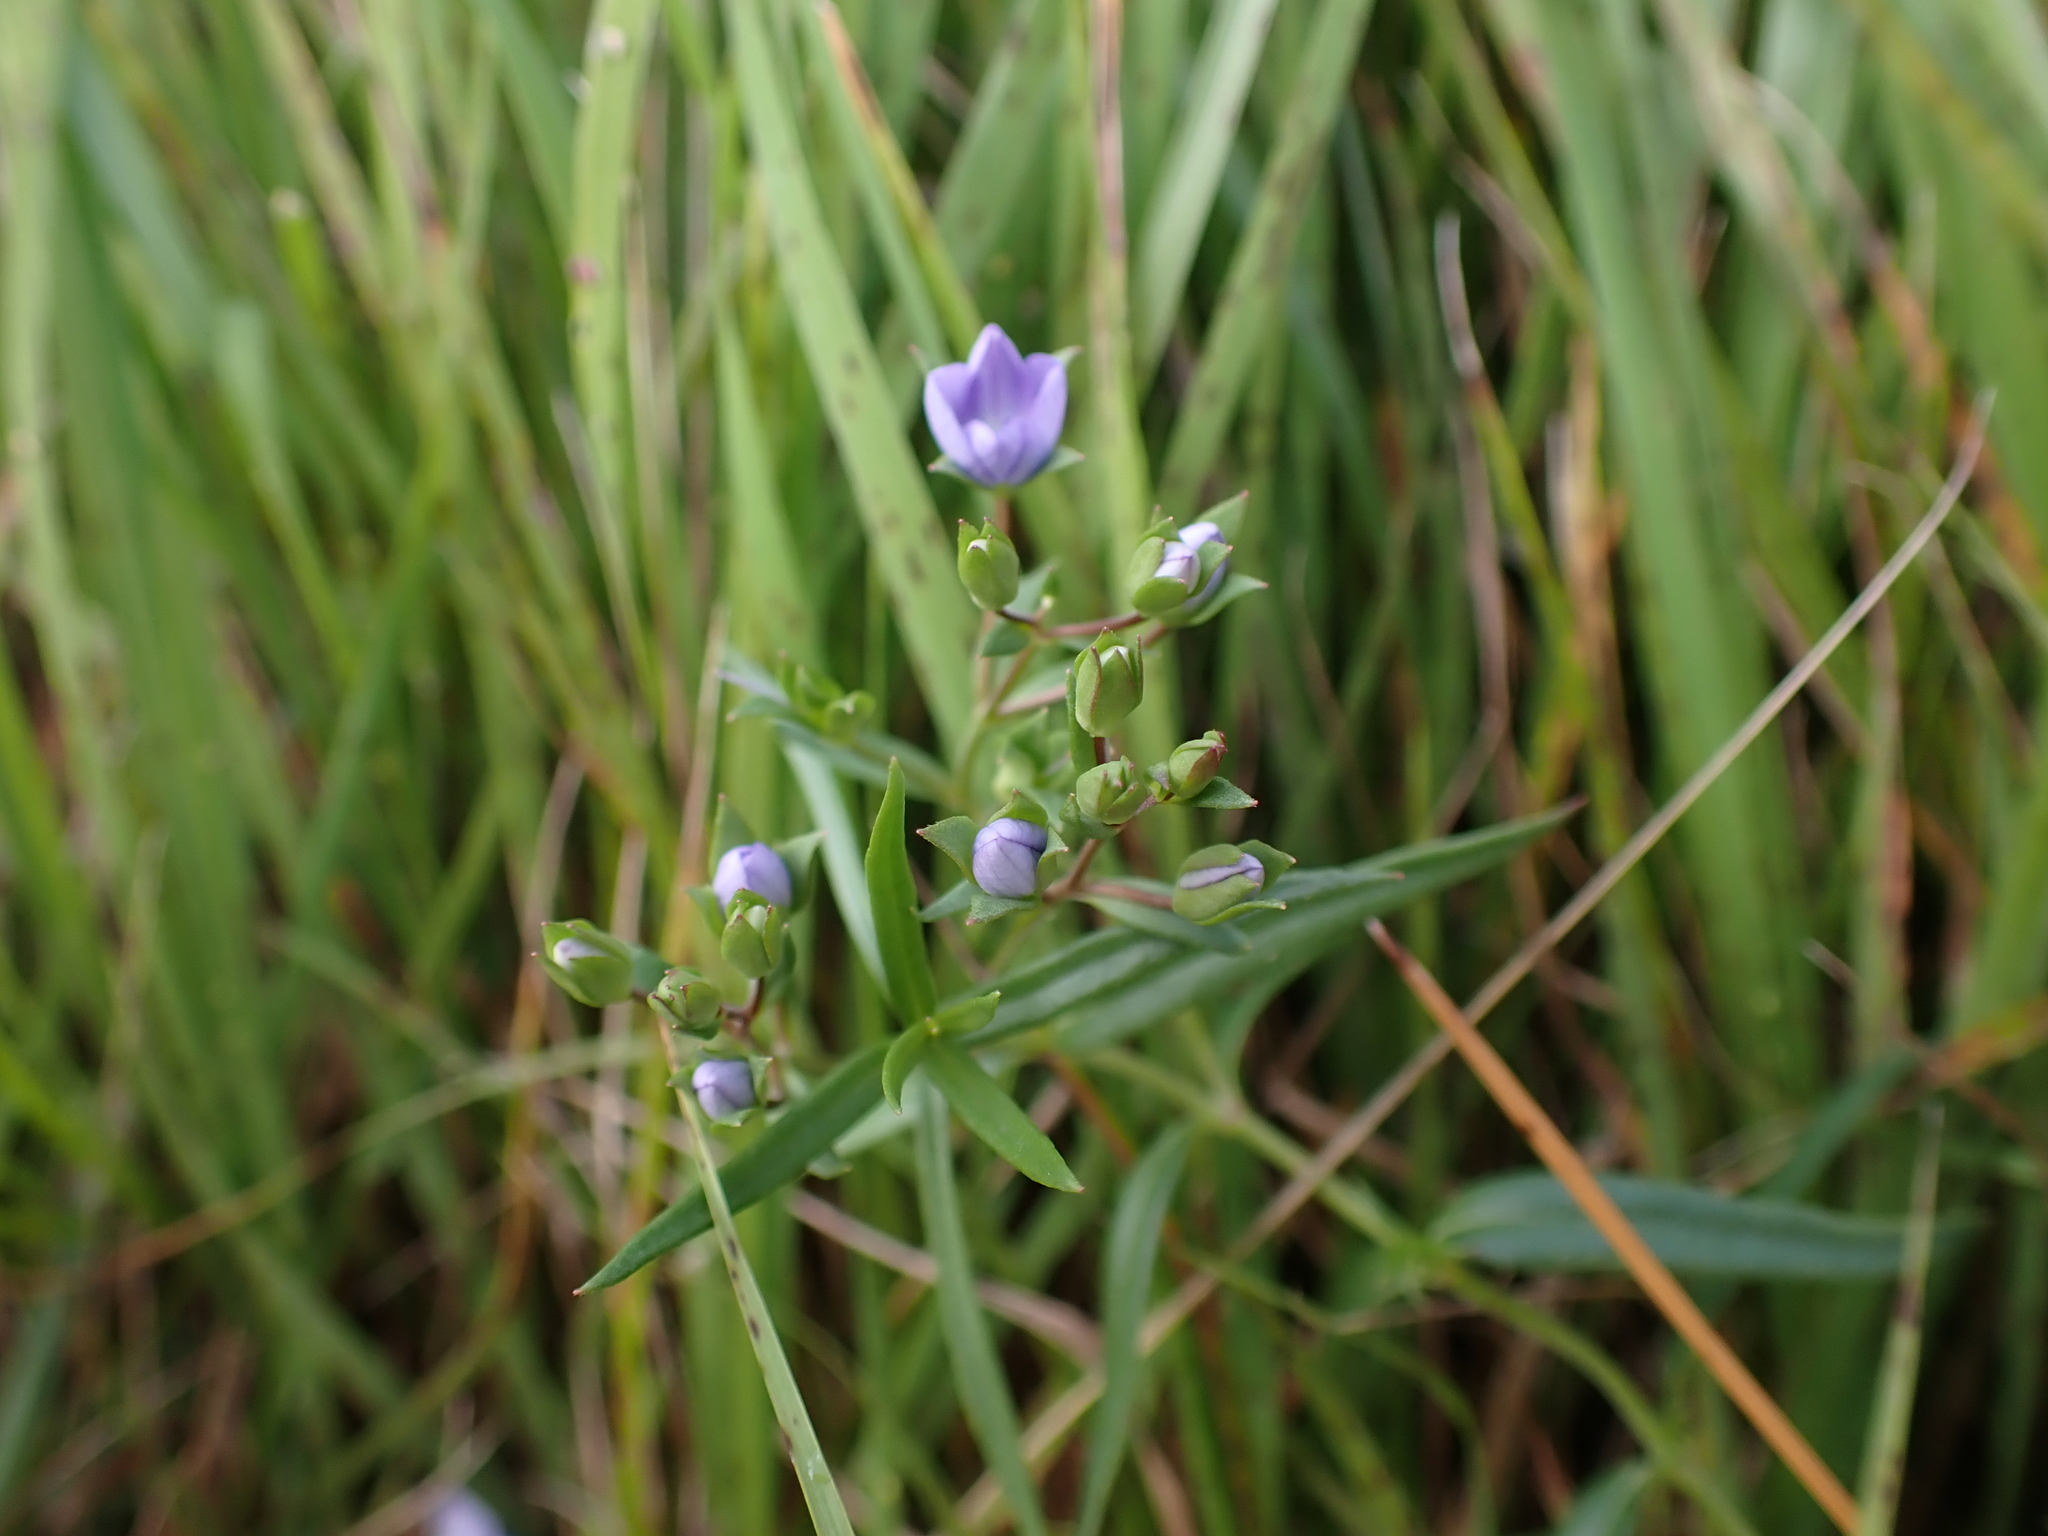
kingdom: Plantae
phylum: Tracheophyta
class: Magnoliopsida
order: Lamiales
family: Plantaginaceae
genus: Veronica
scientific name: Veronica gracilis
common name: Slender speedwell
